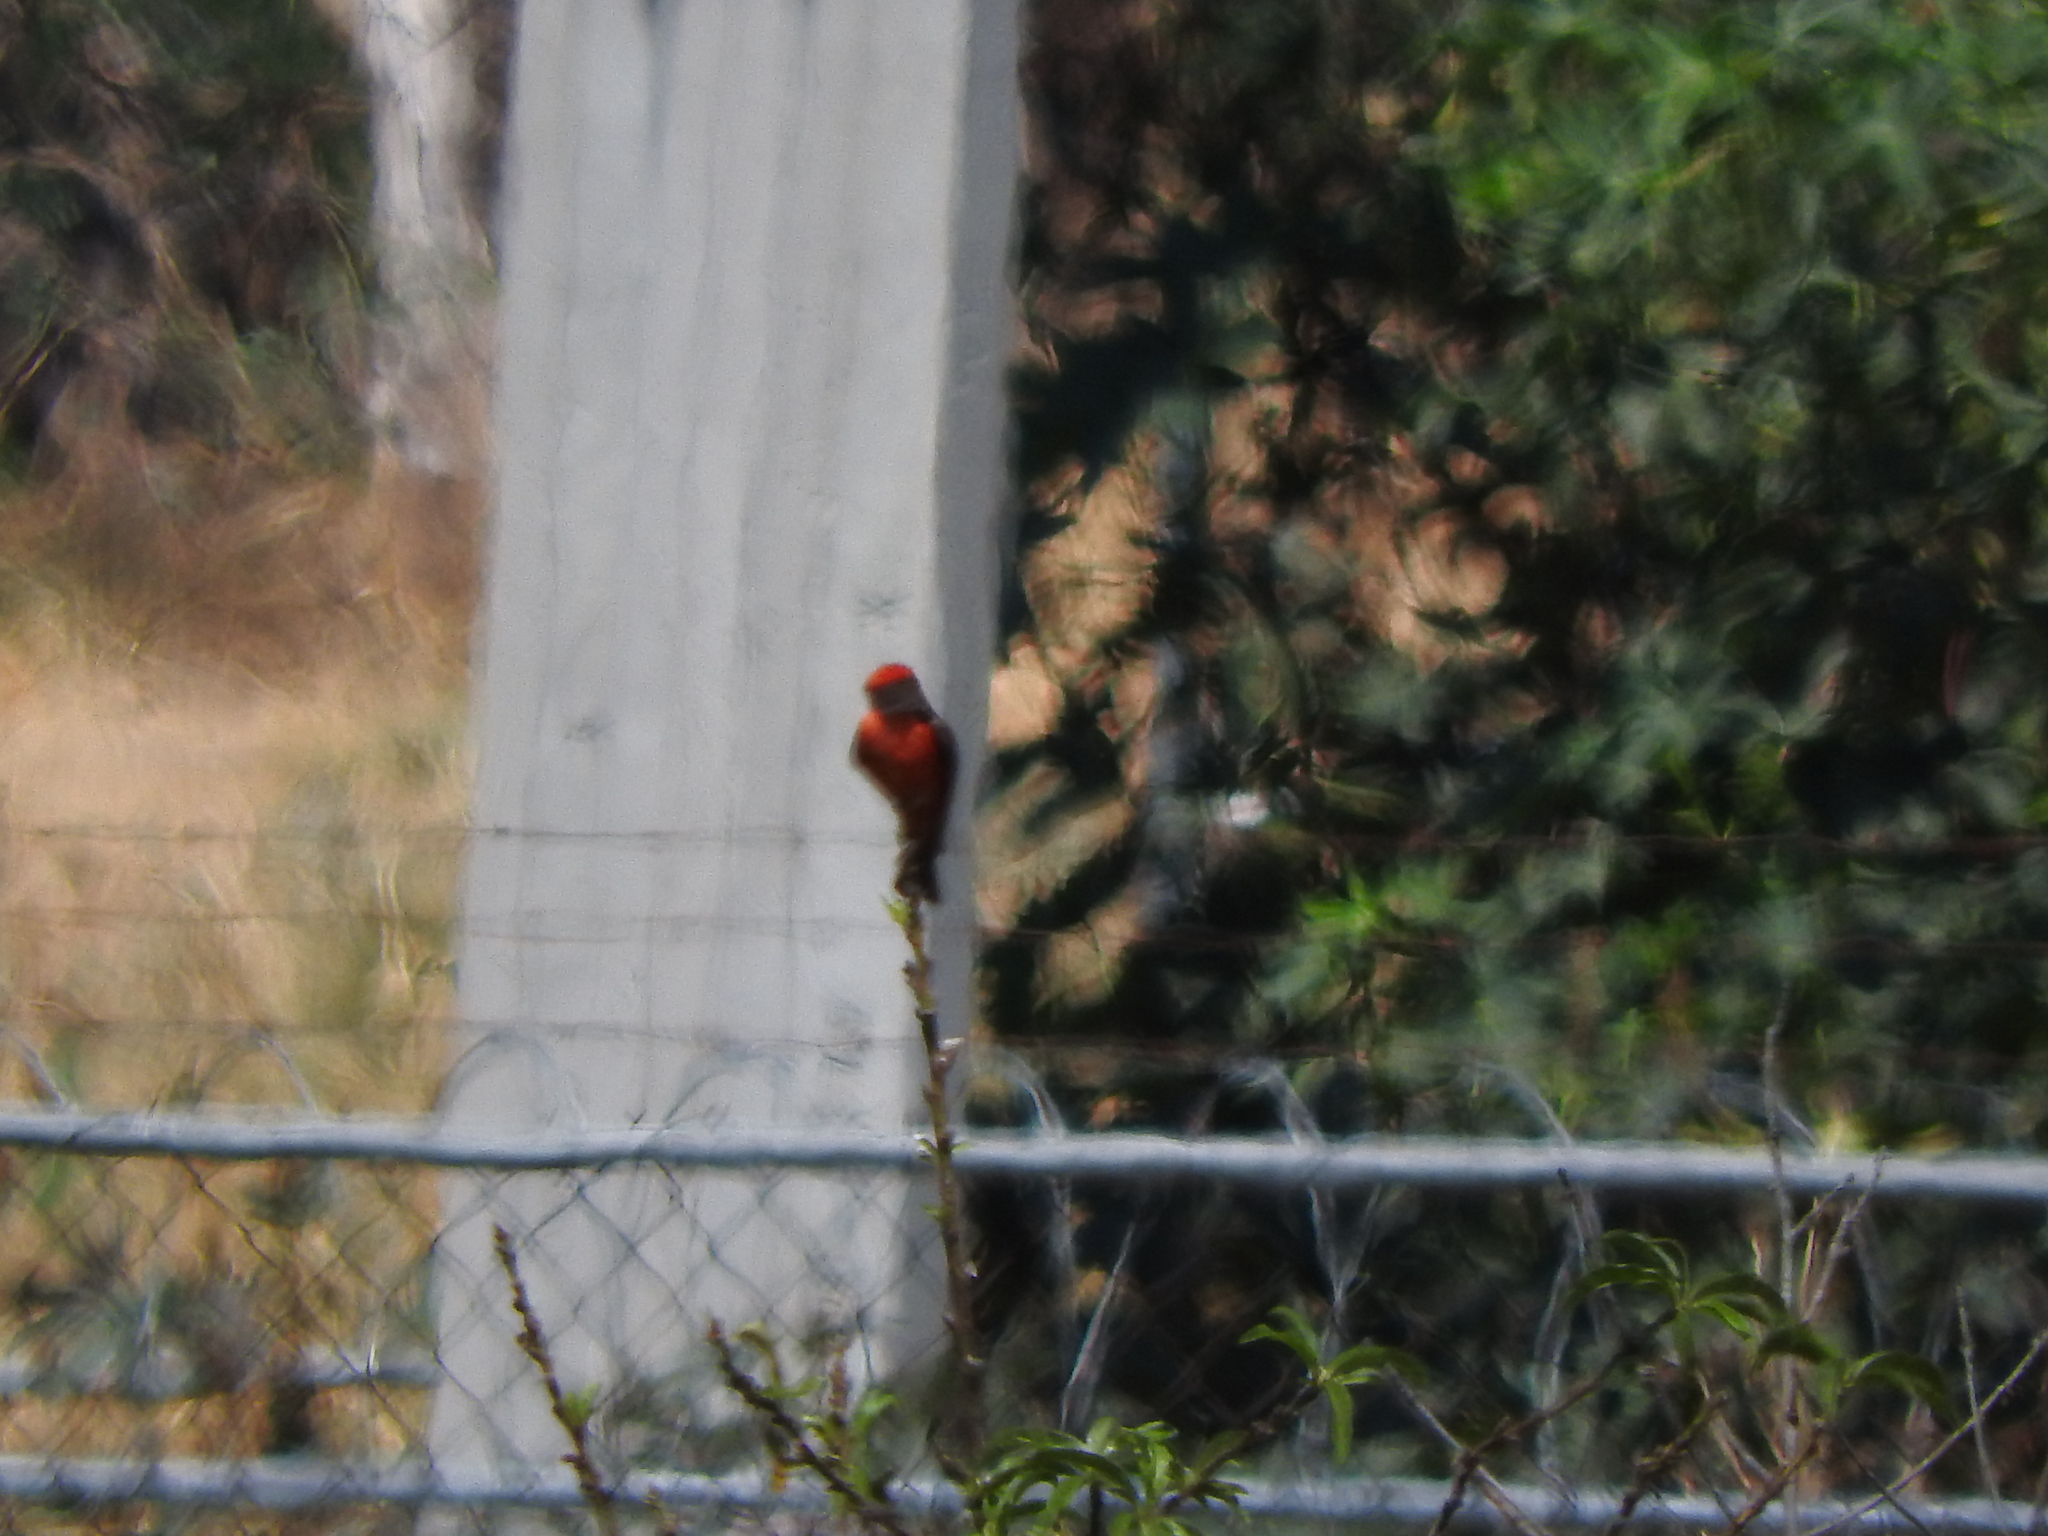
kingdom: Animalia
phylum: Chordata
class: Aves
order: Passeriformes
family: Tyrannidae
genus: Pyrocephalus
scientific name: Pyrocephalus rubinus
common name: Vermilion flycatcher
